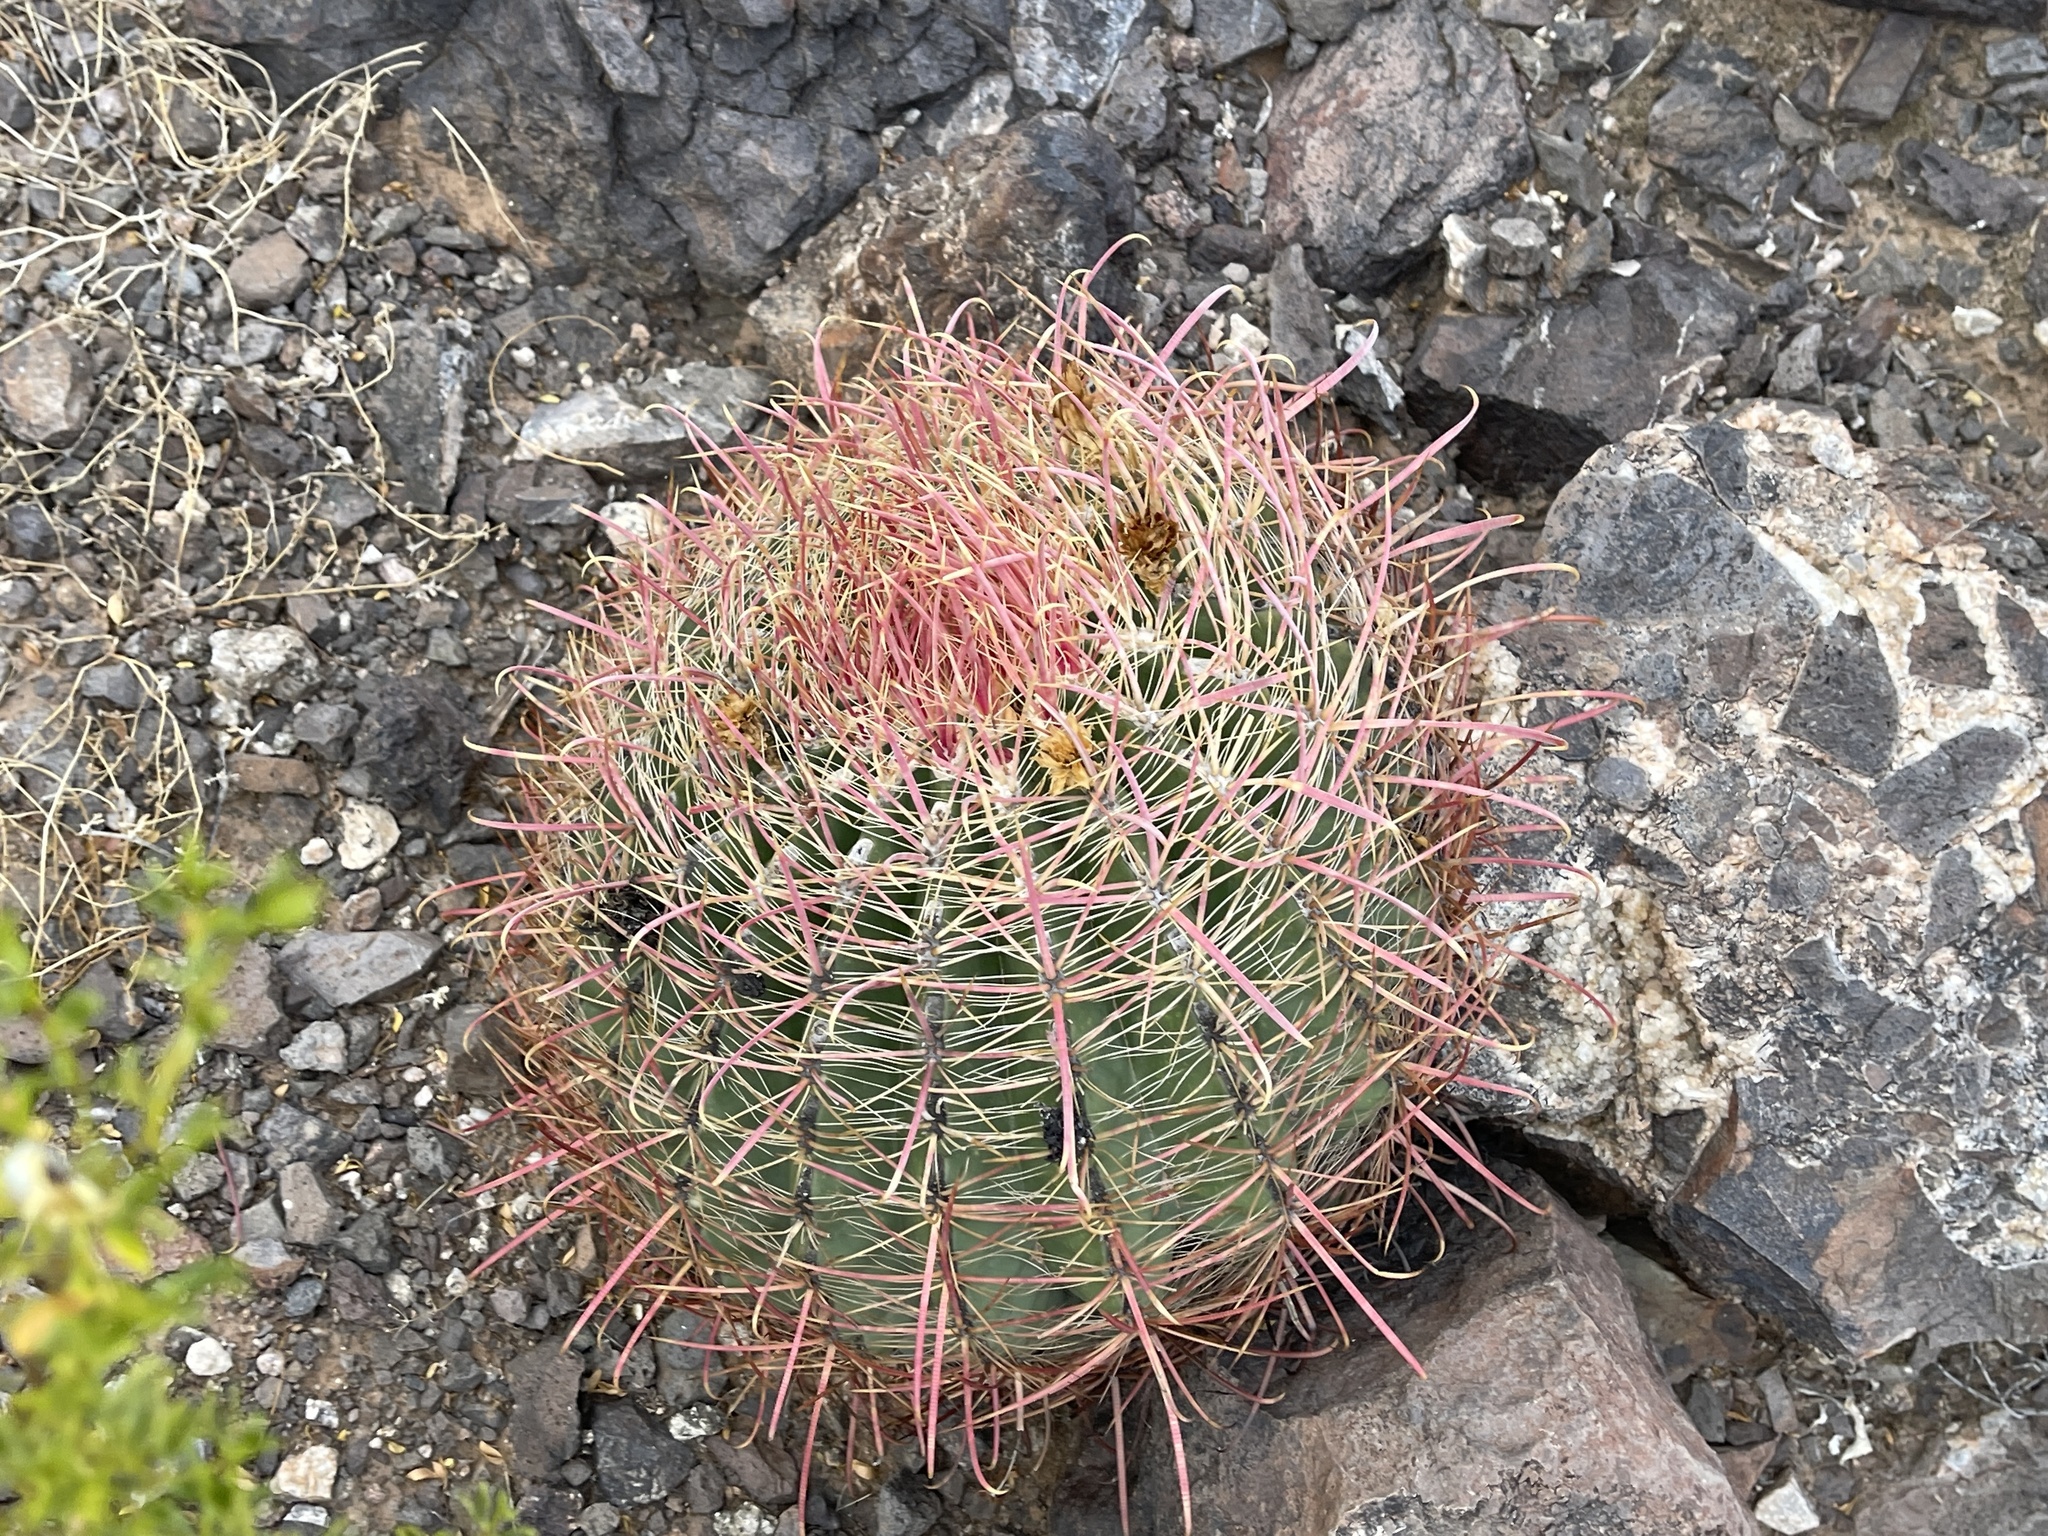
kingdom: Plantae
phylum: Tracheophyta
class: Magnoliopsida
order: Caryophyllales
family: Cactaceae
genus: Ferocactus
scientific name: Ferocactus cylindraceus
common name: California barrel cactus
